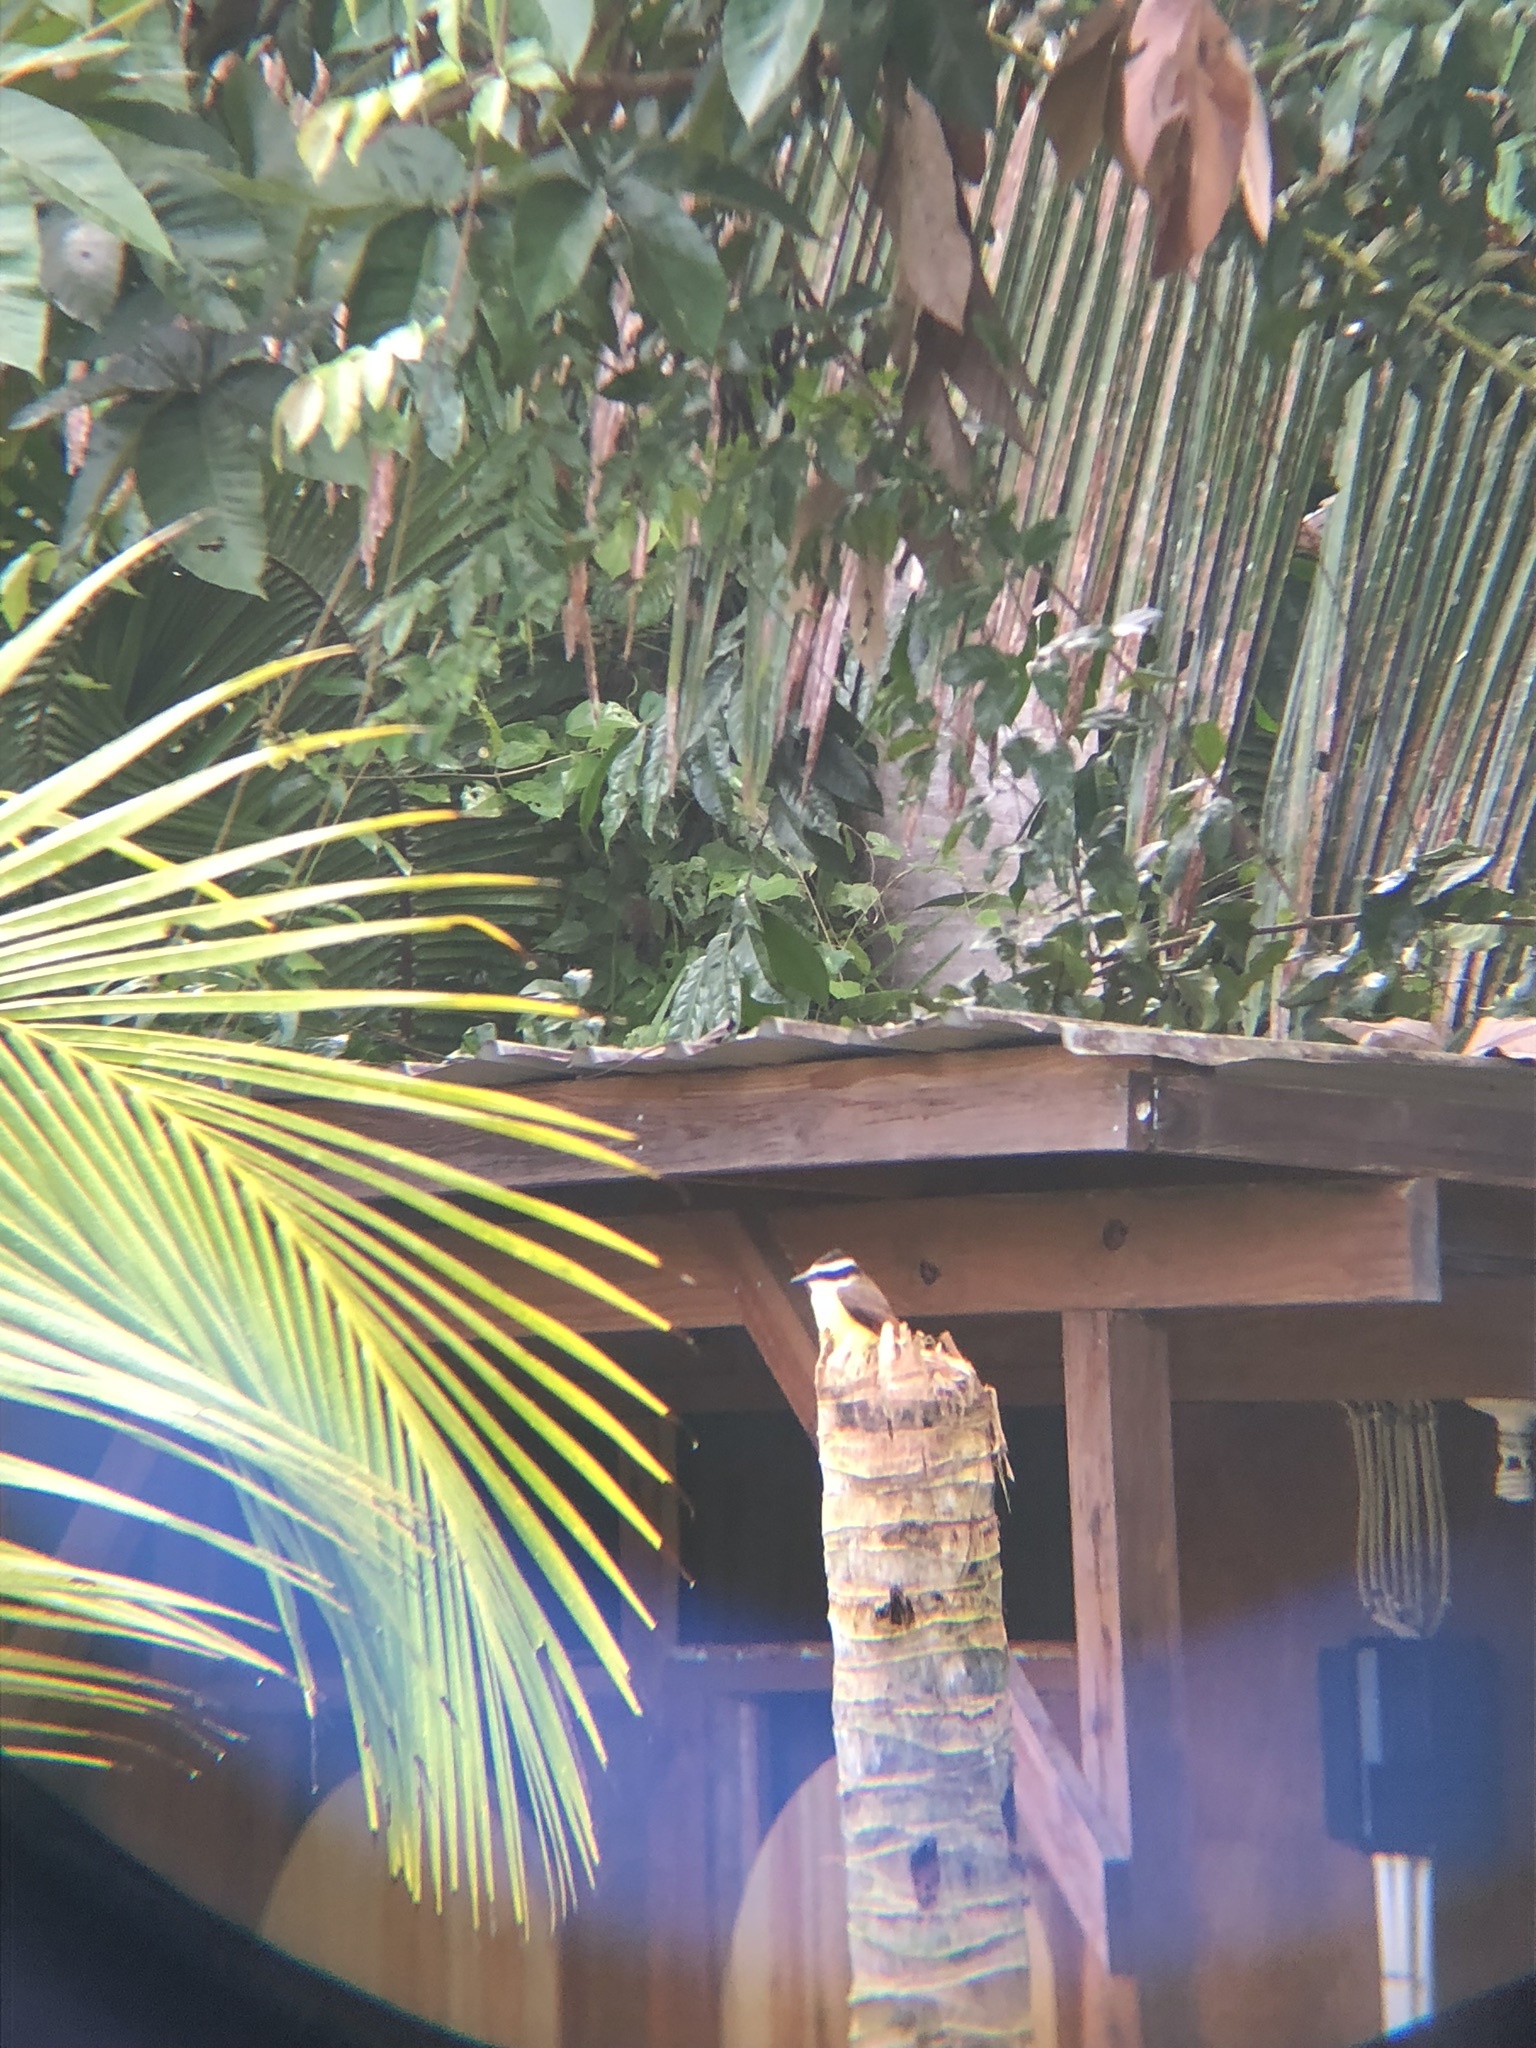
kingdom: Animalia
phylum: Chordata
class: Aves
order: Passeriformes
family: Tyrannidae
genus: Pitangus
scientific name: Pitangus sulphuratus
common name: Great kiskadee
